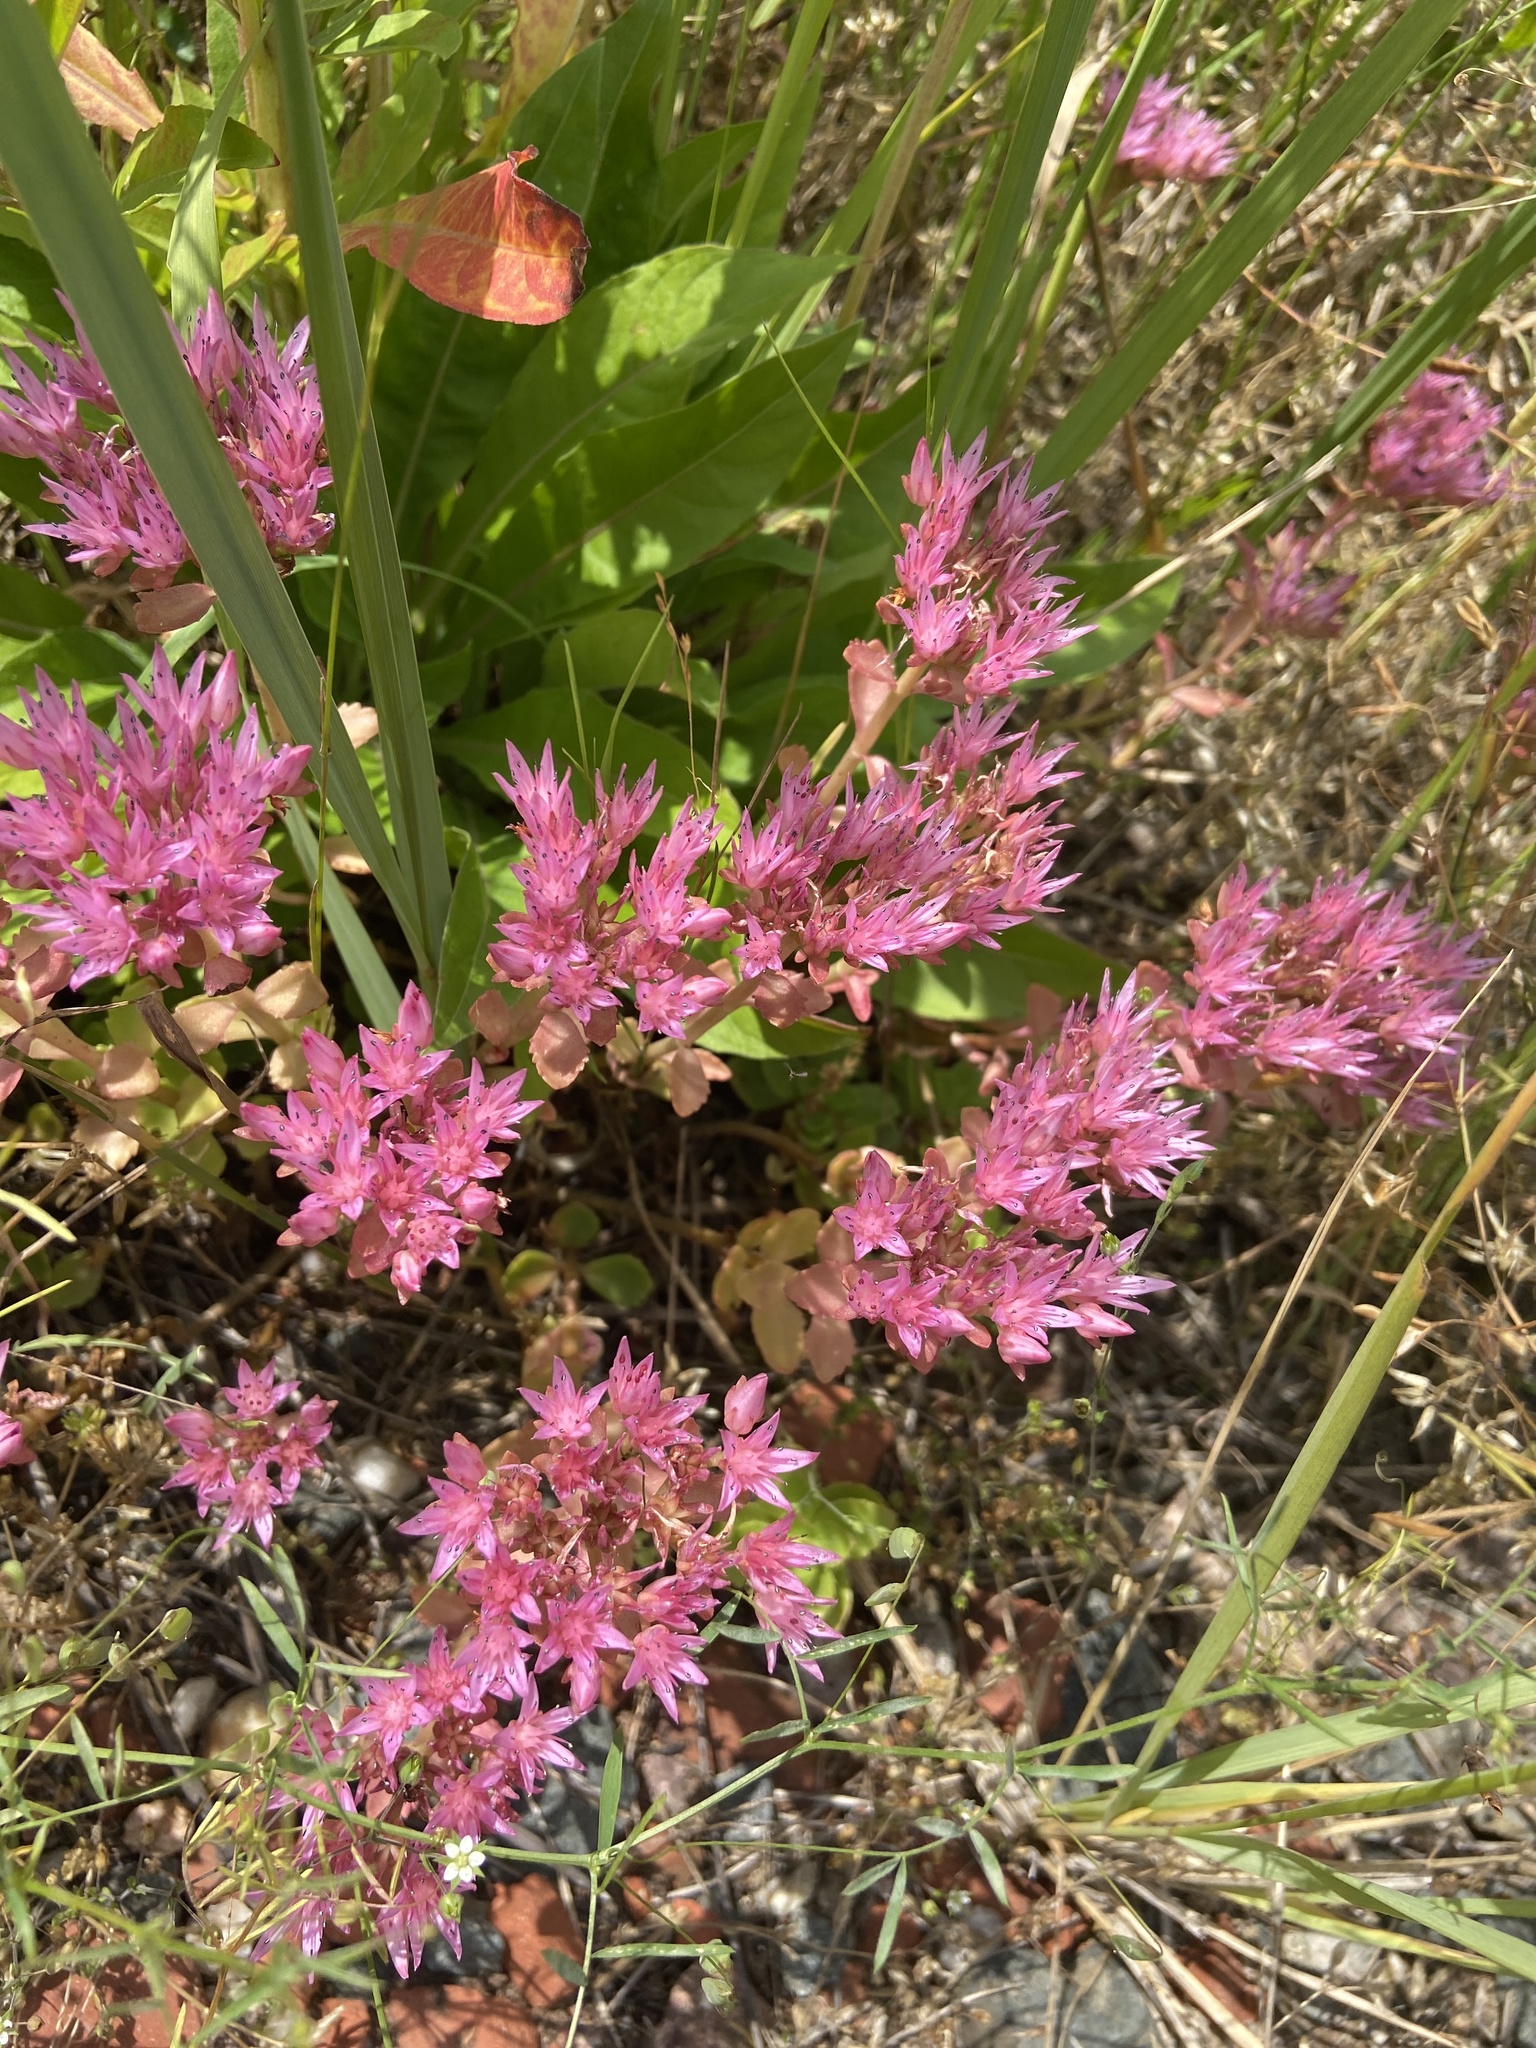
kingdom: Plantae
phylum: Tracheophyta
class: Magnoliopsida
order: Saxifragales
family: Crassulaceae
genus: Phedimus
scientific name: Phedimus spurius
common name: Caucasian stonecrop
